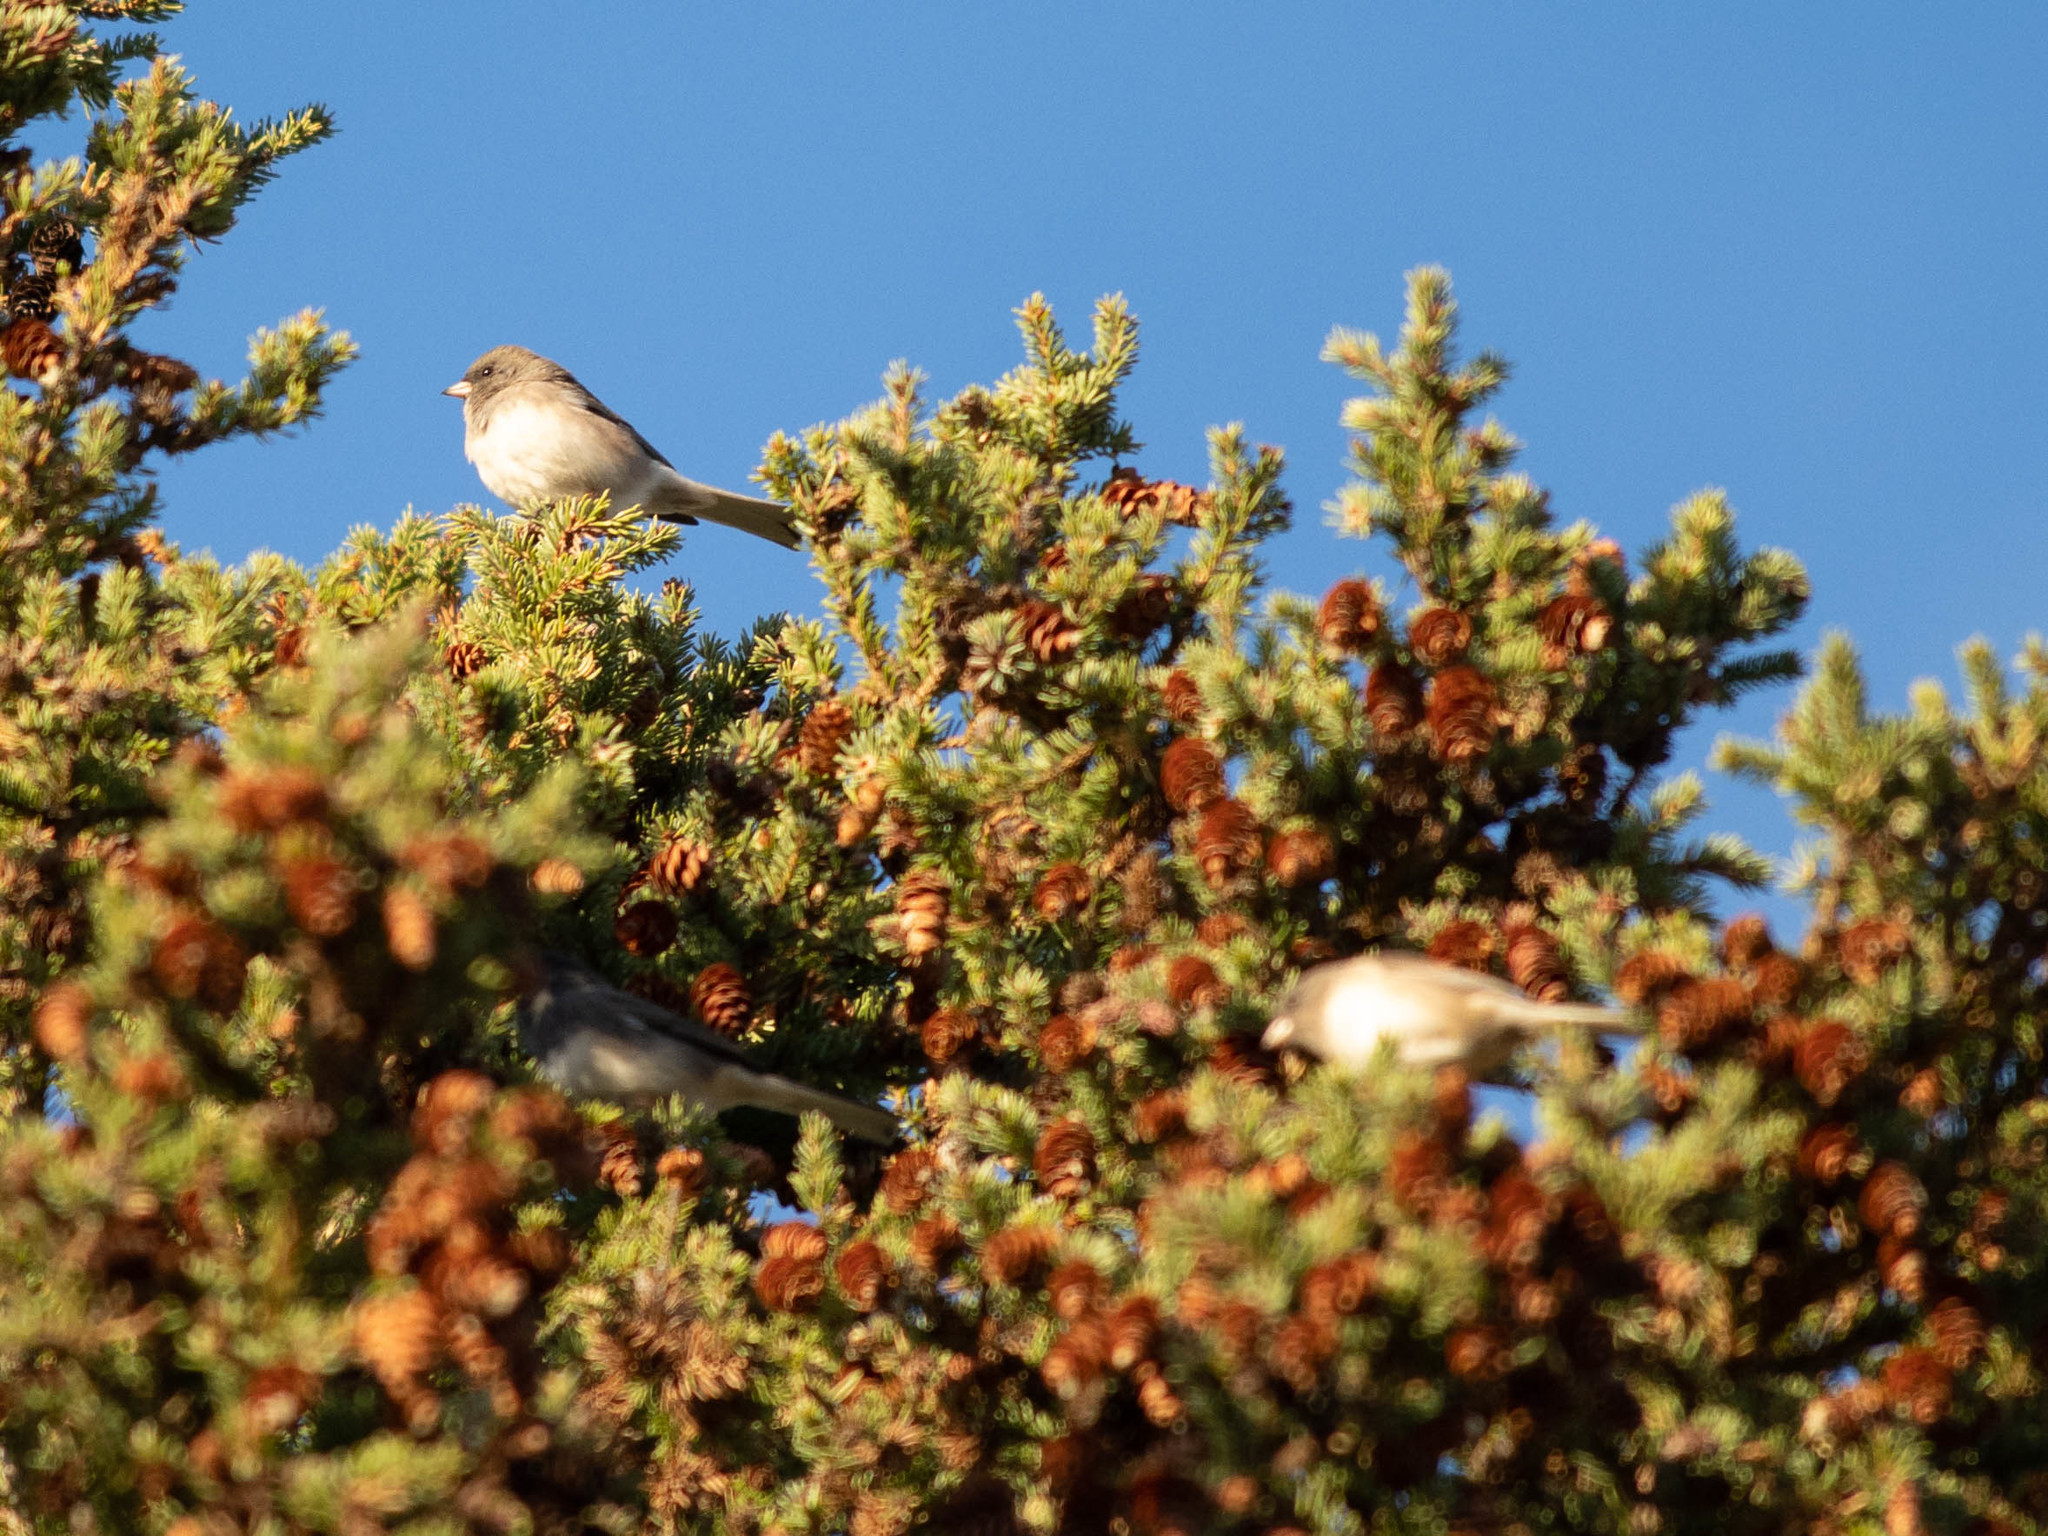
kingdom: Animalia
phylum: Chordata
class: Aves
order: Passeriformes
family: Passerellidae
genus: Junco
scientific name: Junco hyemalis
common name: Dark-eyed junco
